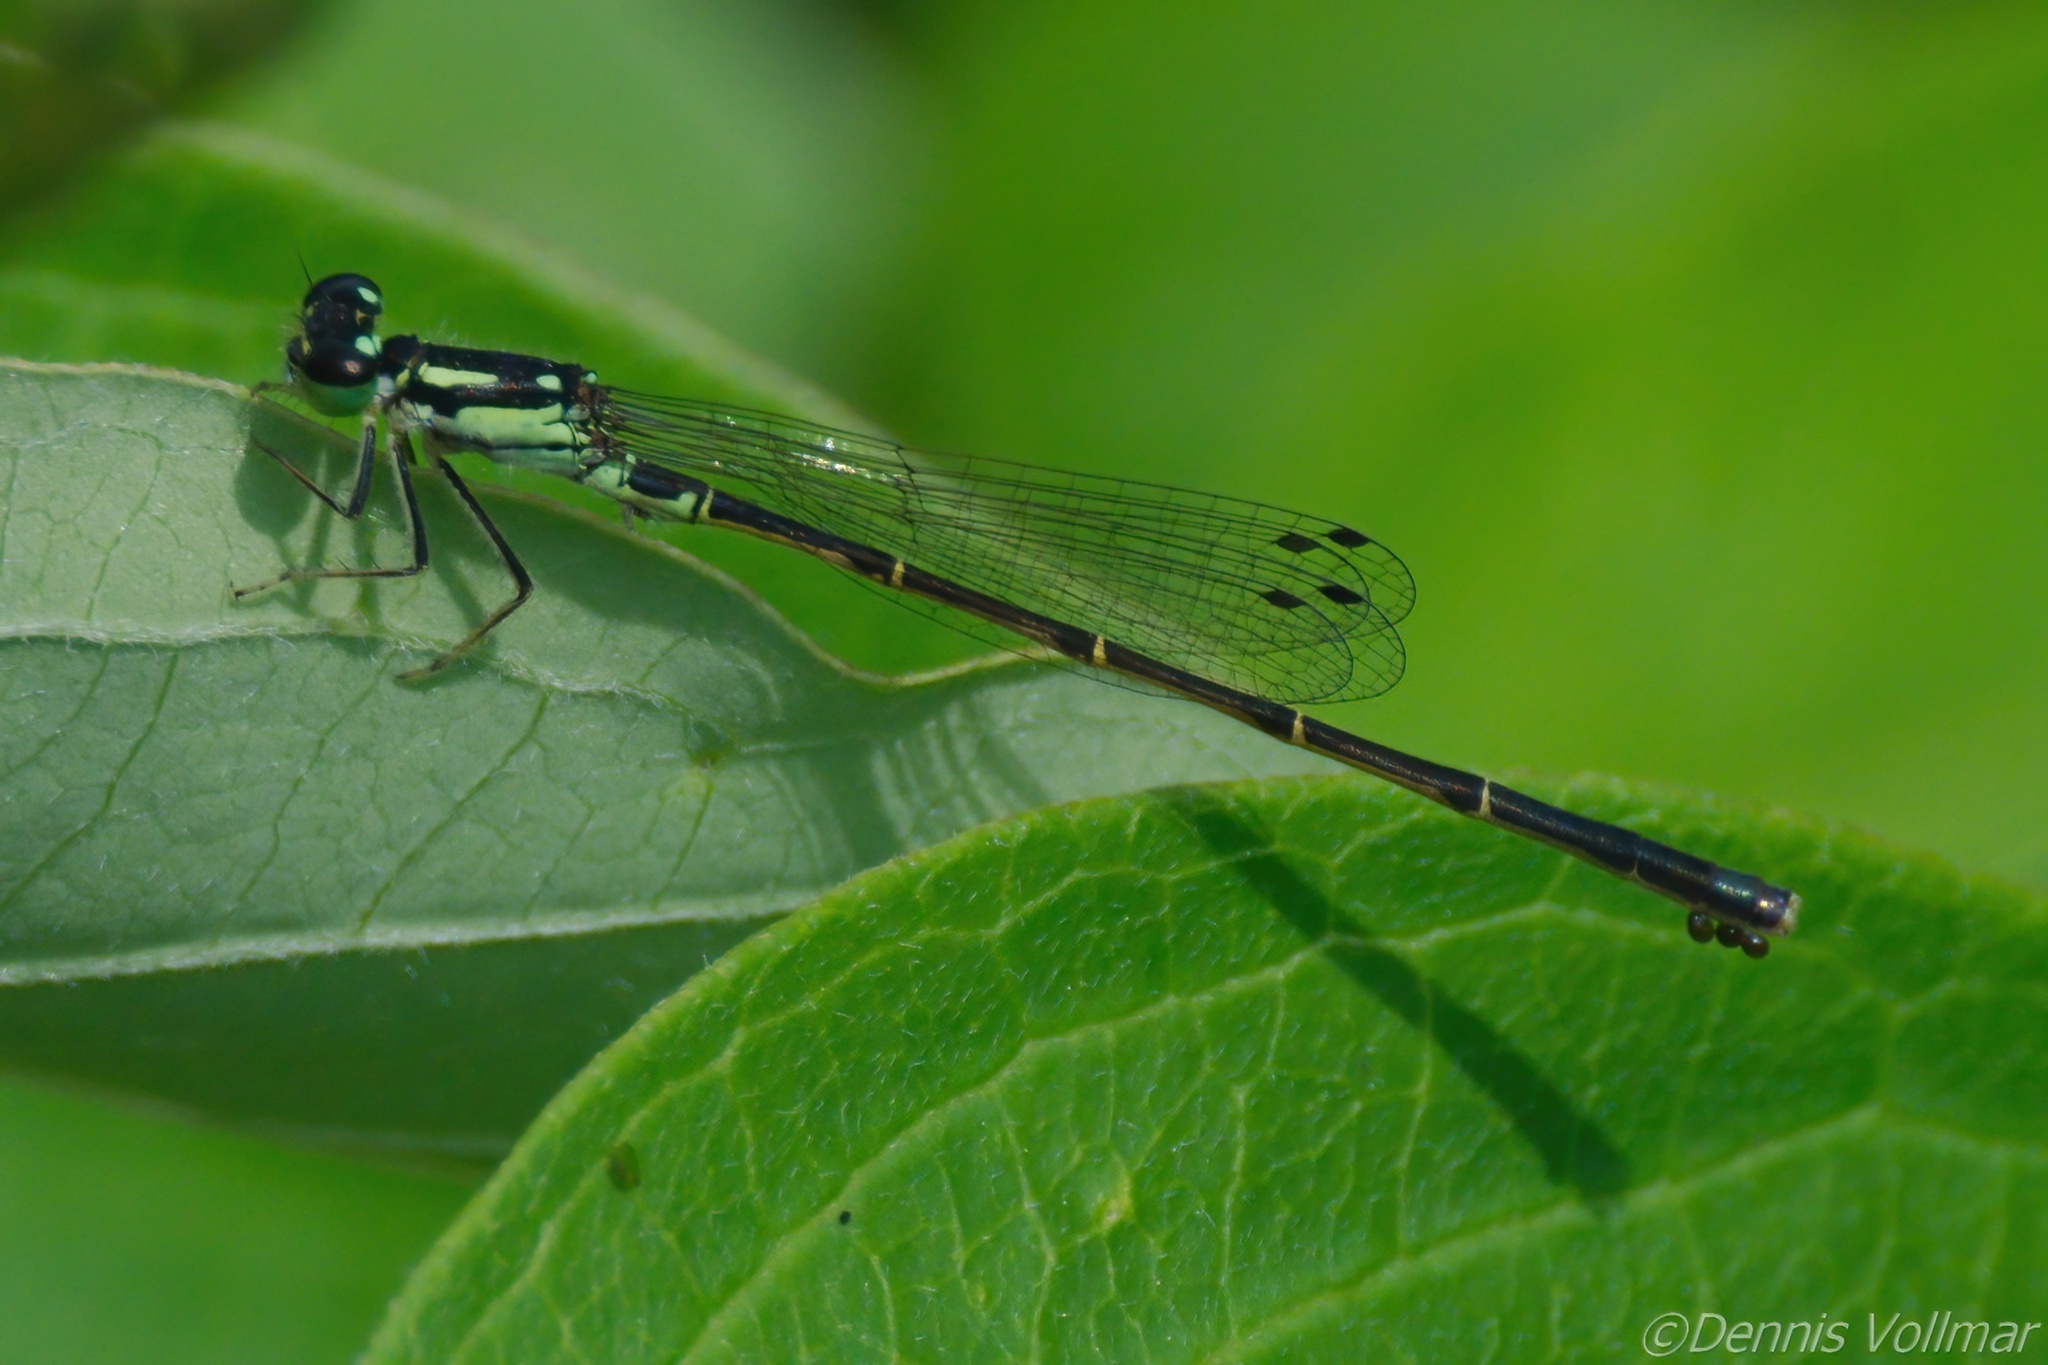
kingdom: Animalia
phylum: Arthropoda
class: Insecta
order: Odonata
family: Coenagrionidae
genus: Ischnura
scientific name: Ischnura posita
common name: Fragile forktail
